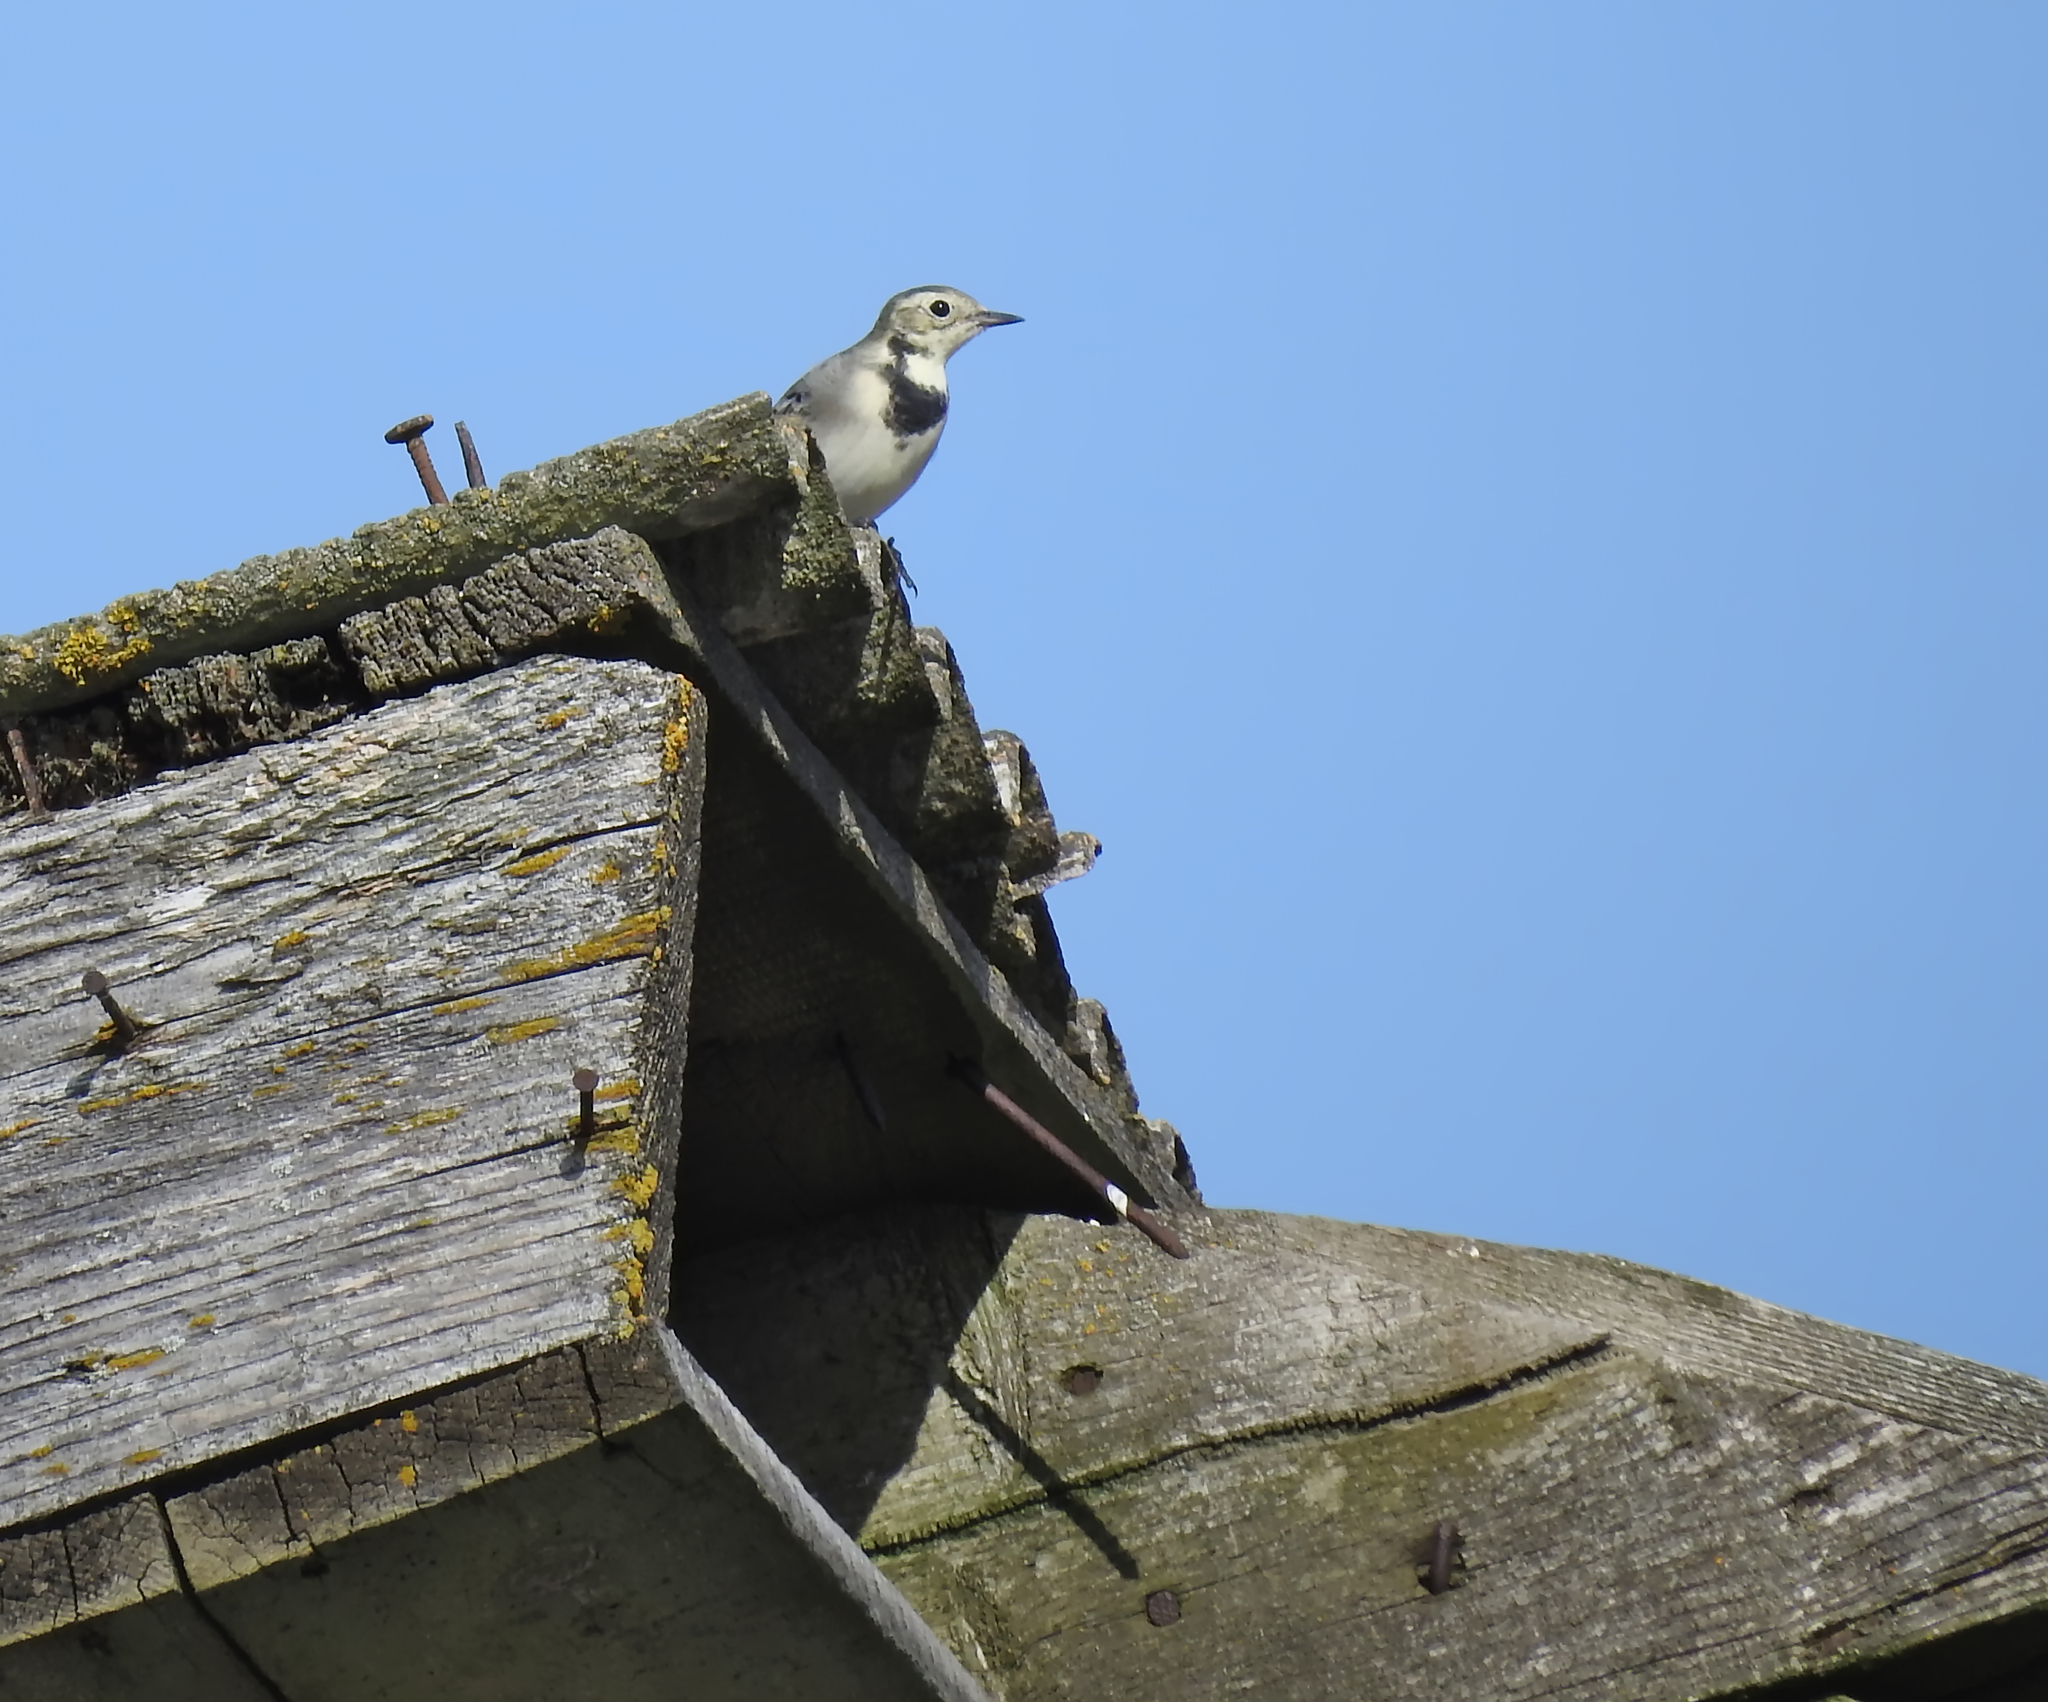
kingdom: Animalia
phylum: Chordata
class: Aves
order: Passeriformes
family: Motacillidae
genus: Motacilla
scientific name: Motacilla alba
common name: White wagtail
